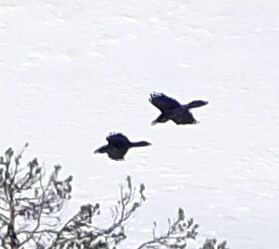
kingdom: Animalia
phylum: Chordata
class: Aves
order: Passeriformes
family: Corvidae
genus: Corvus
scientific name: Corvus corax
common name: Common raven
